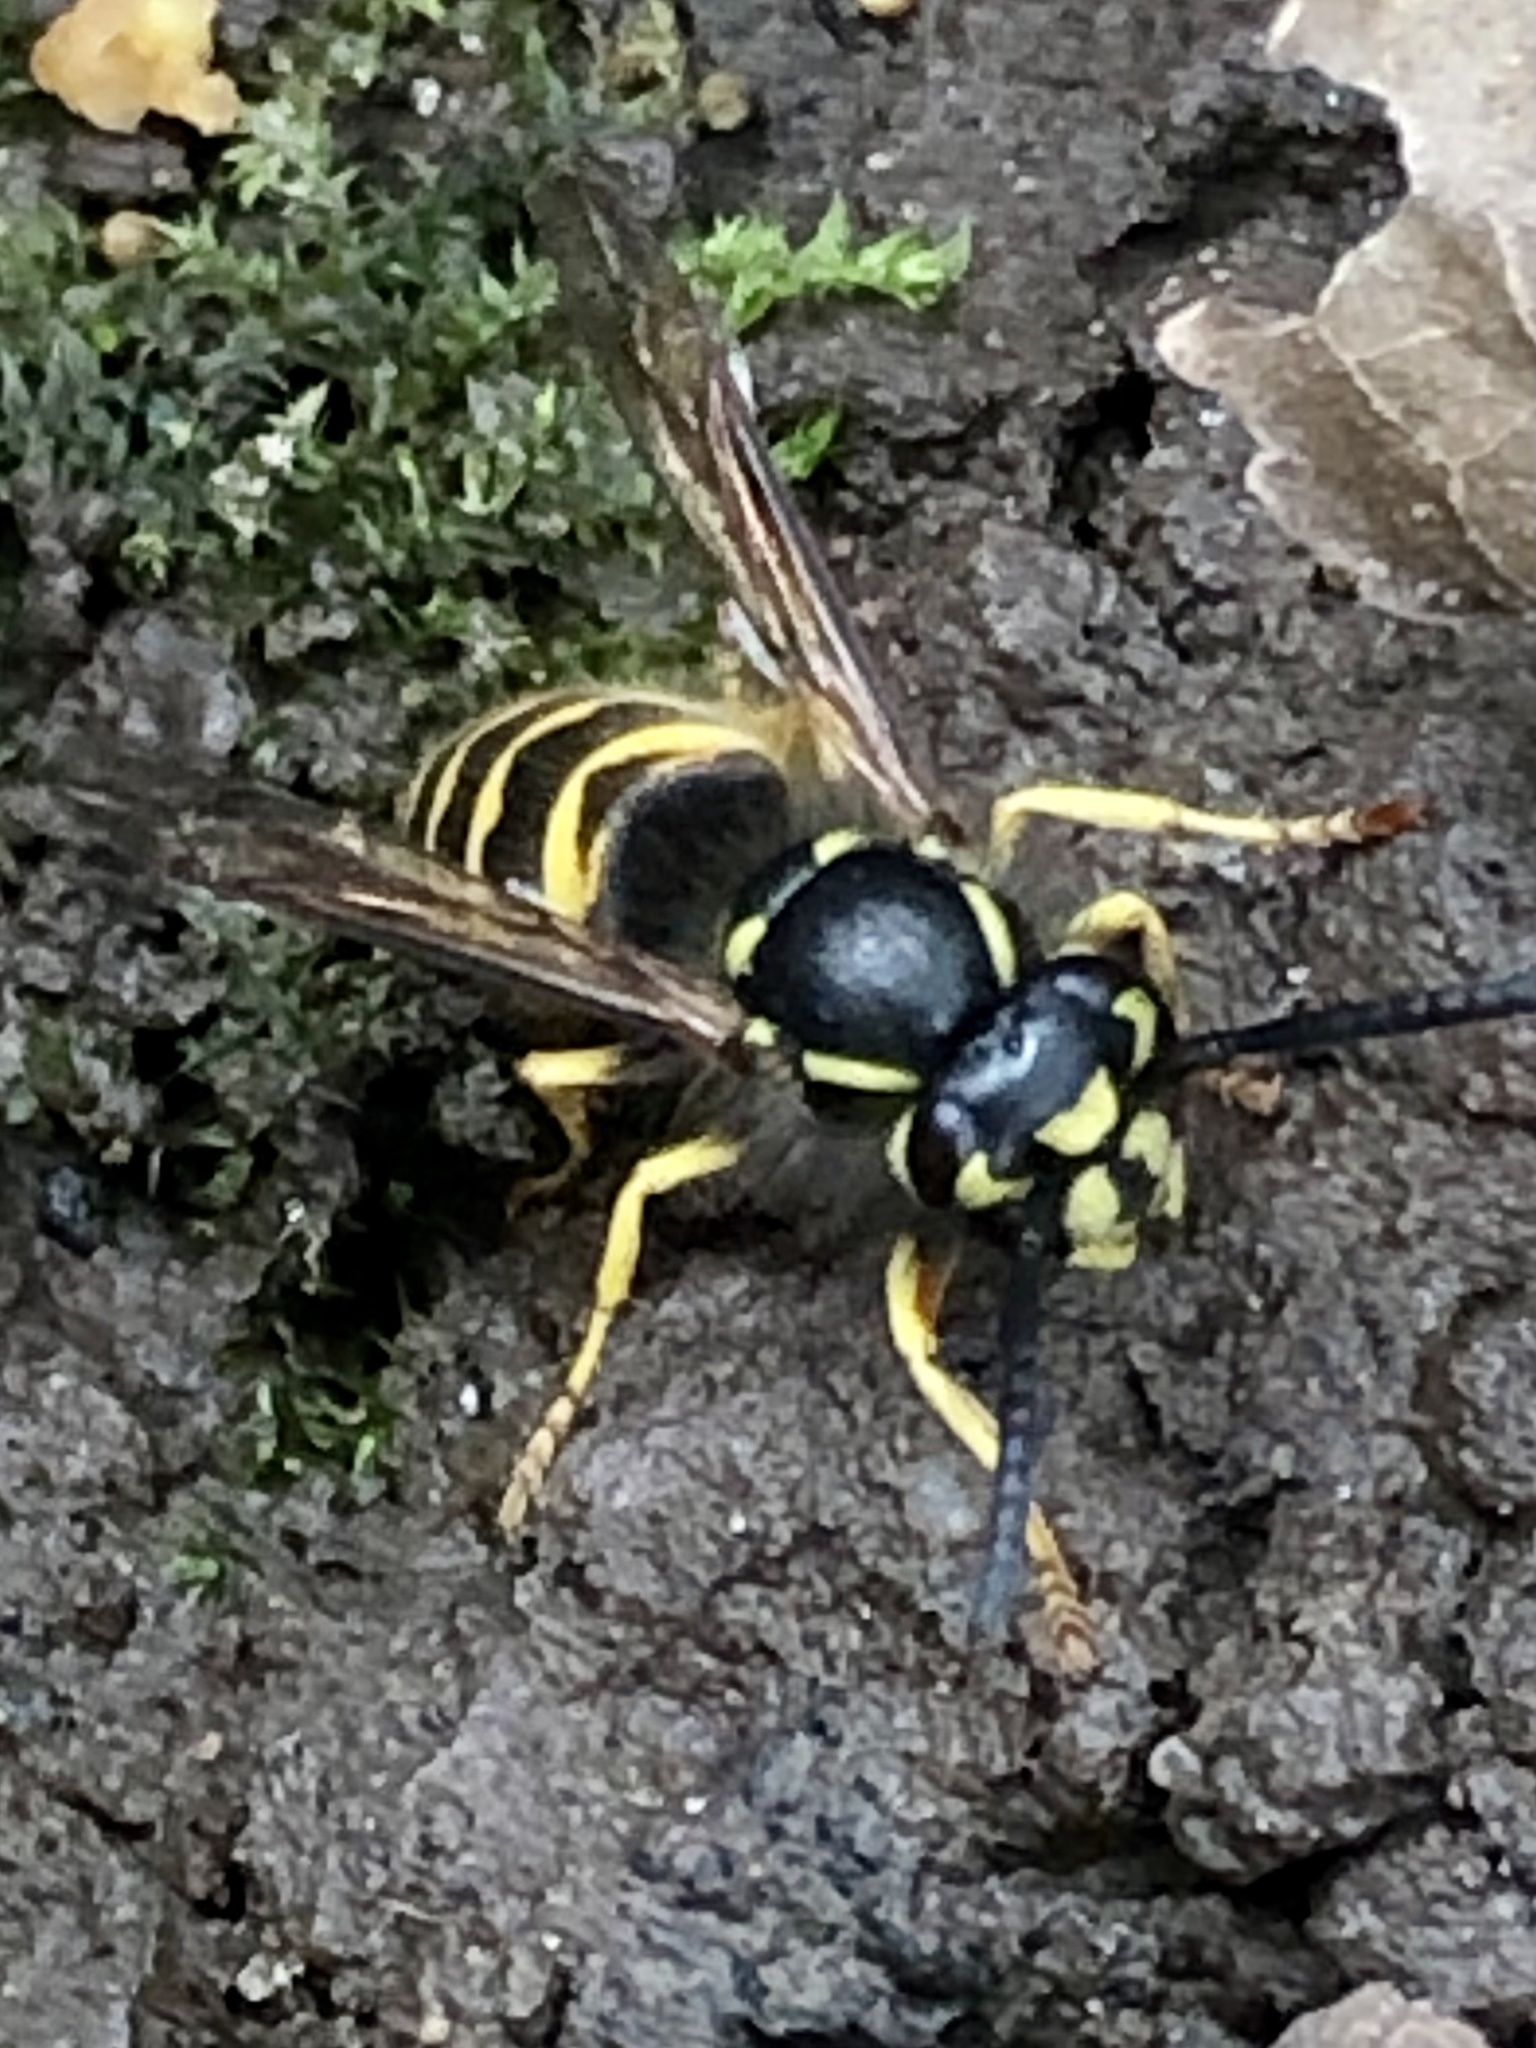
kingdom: Animalia
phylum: Arthropoda
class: Insecta
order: Hymenoptera
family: Vespidae
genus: Vespula
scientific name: Vespula alascensis
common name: Alaska yellowjacket
